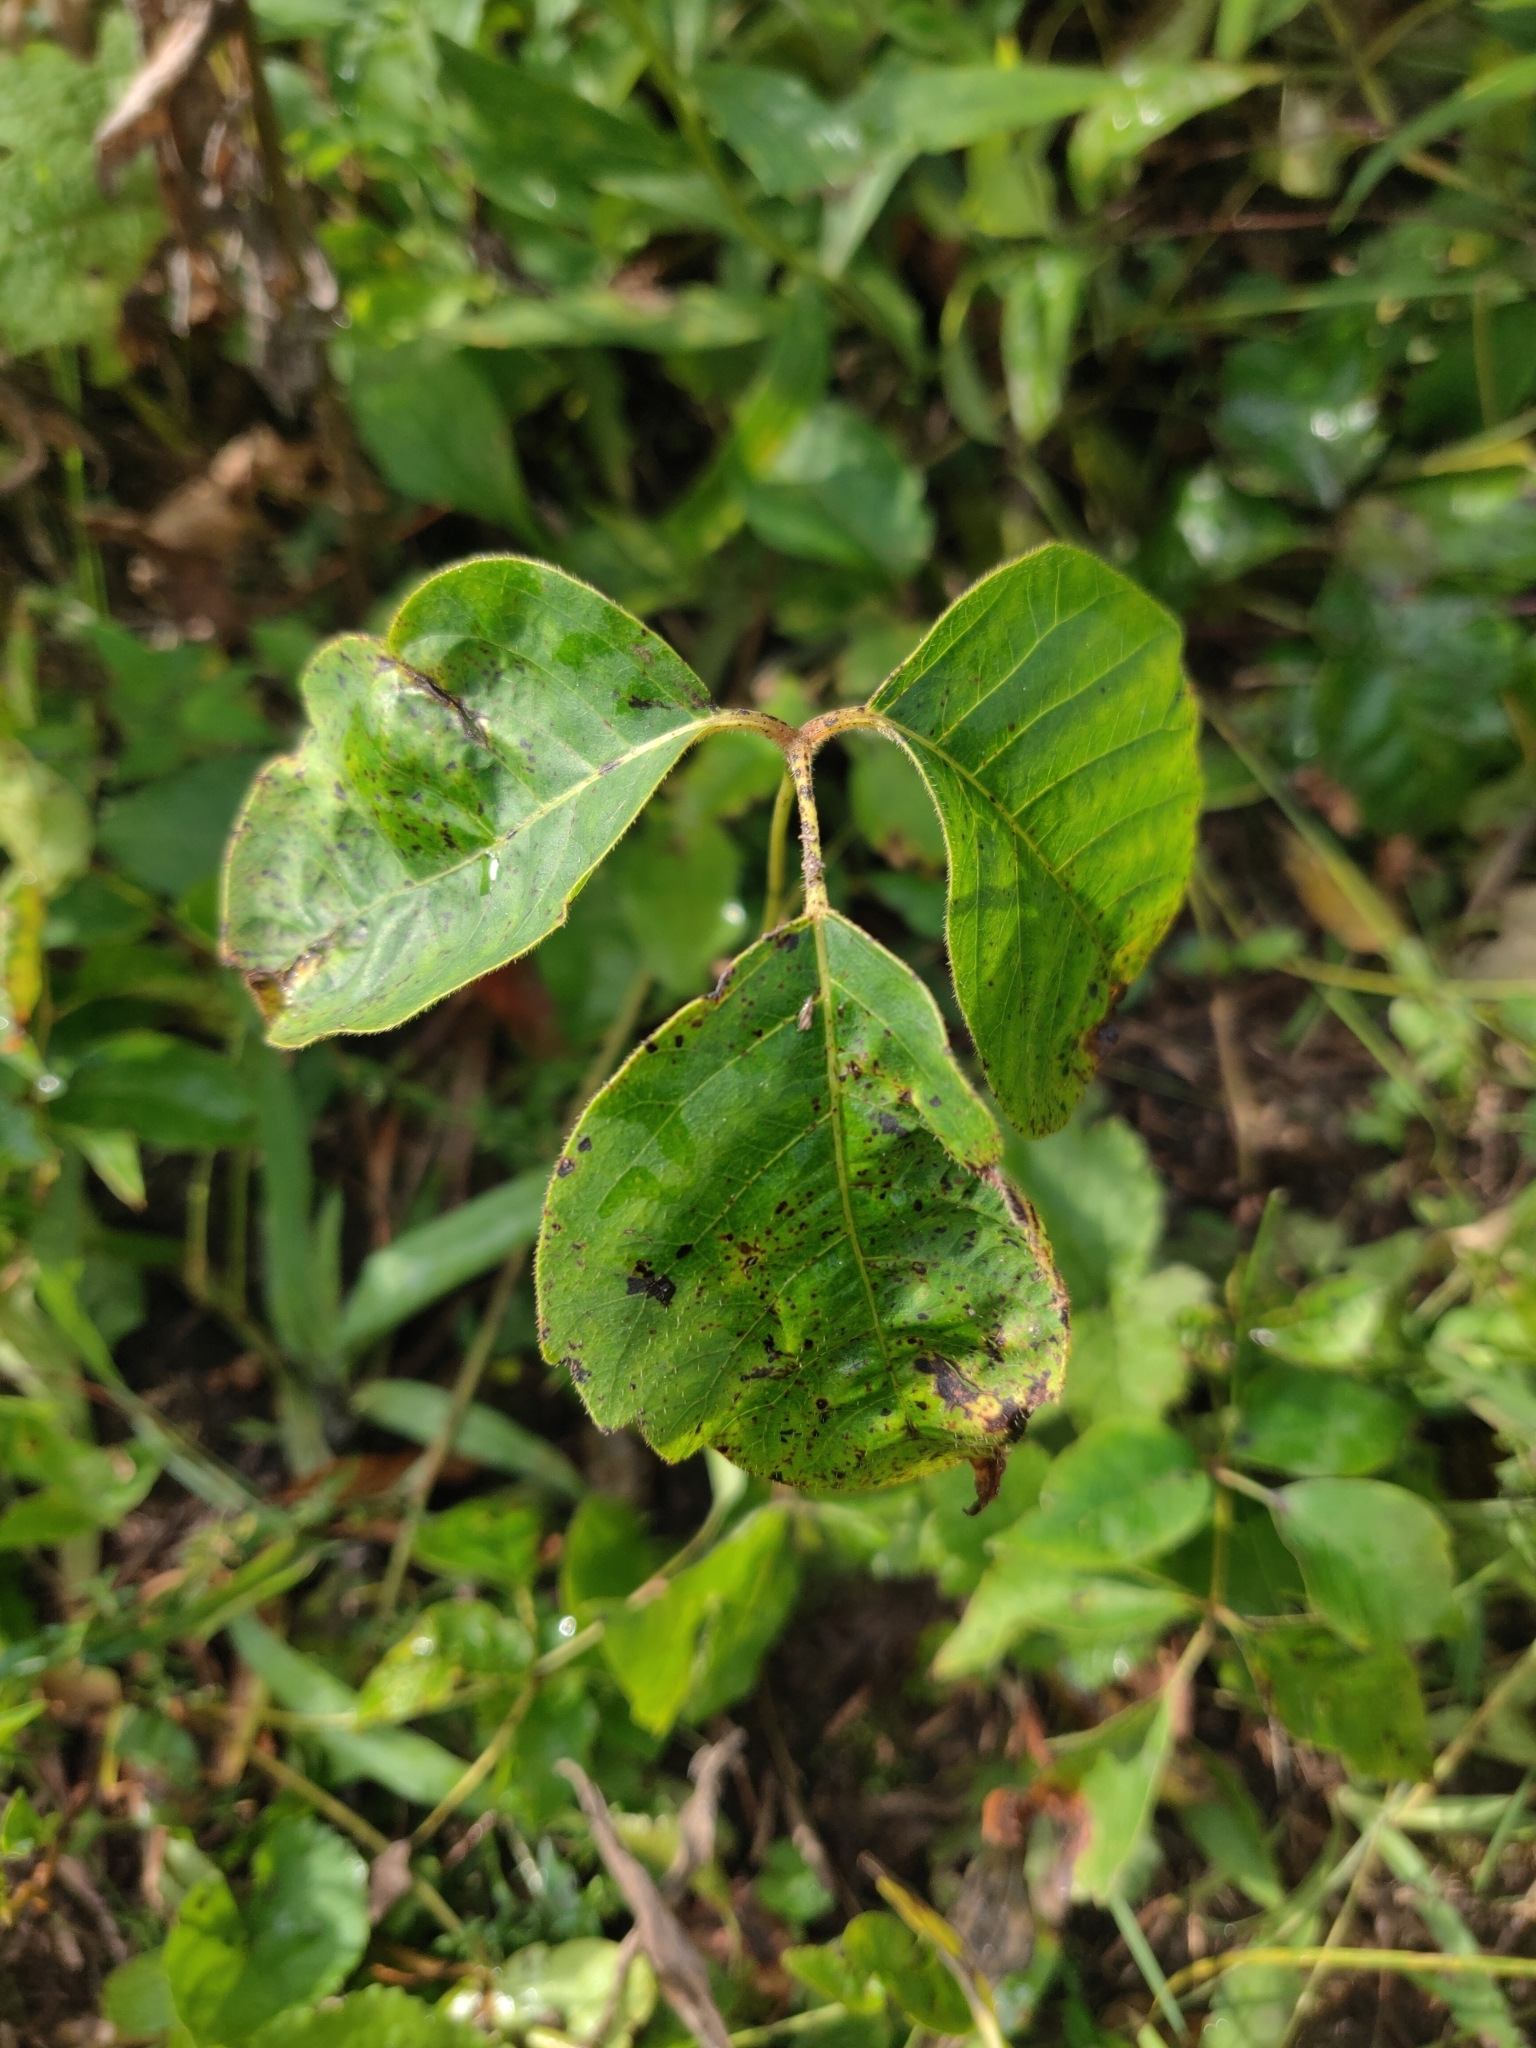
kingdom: Plantae
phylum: Tracheophyta
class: Magnoliopsida
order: Sapindales
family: Anacardiaceae
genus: Toxicodendron
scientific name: Toxicodendron radicans
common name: Poison ivy
